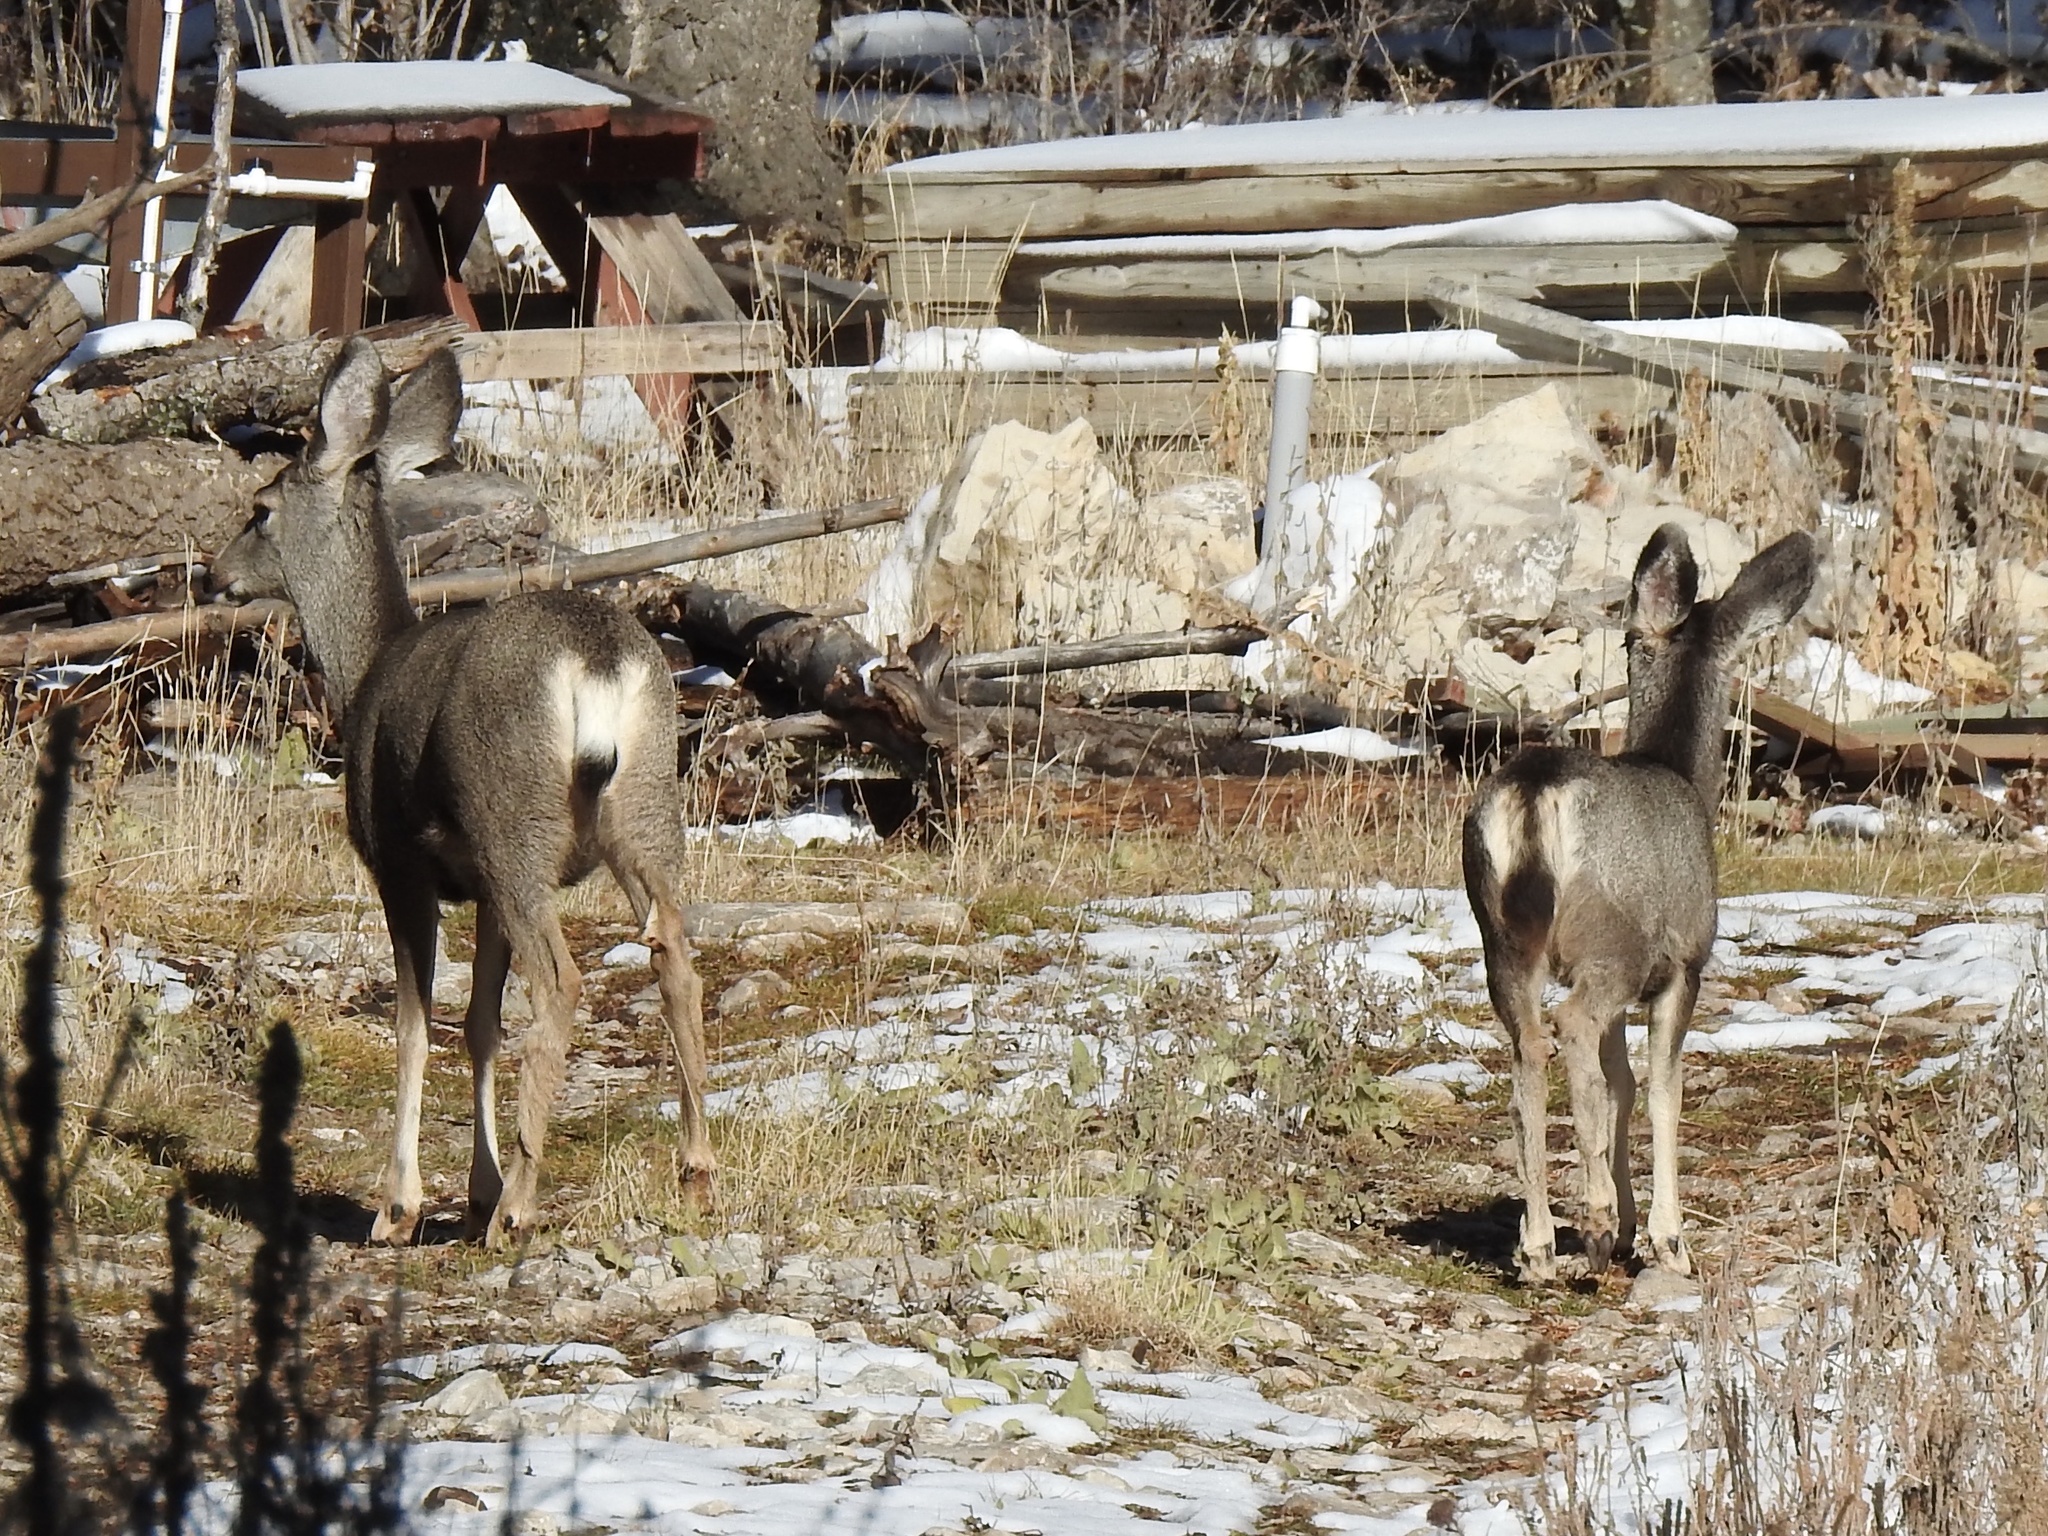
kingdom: Animalia
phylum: Chordata
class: Mammalia
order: Artiodactyla
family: Cervidae
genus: Odocoileus
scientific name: Odocoileus
